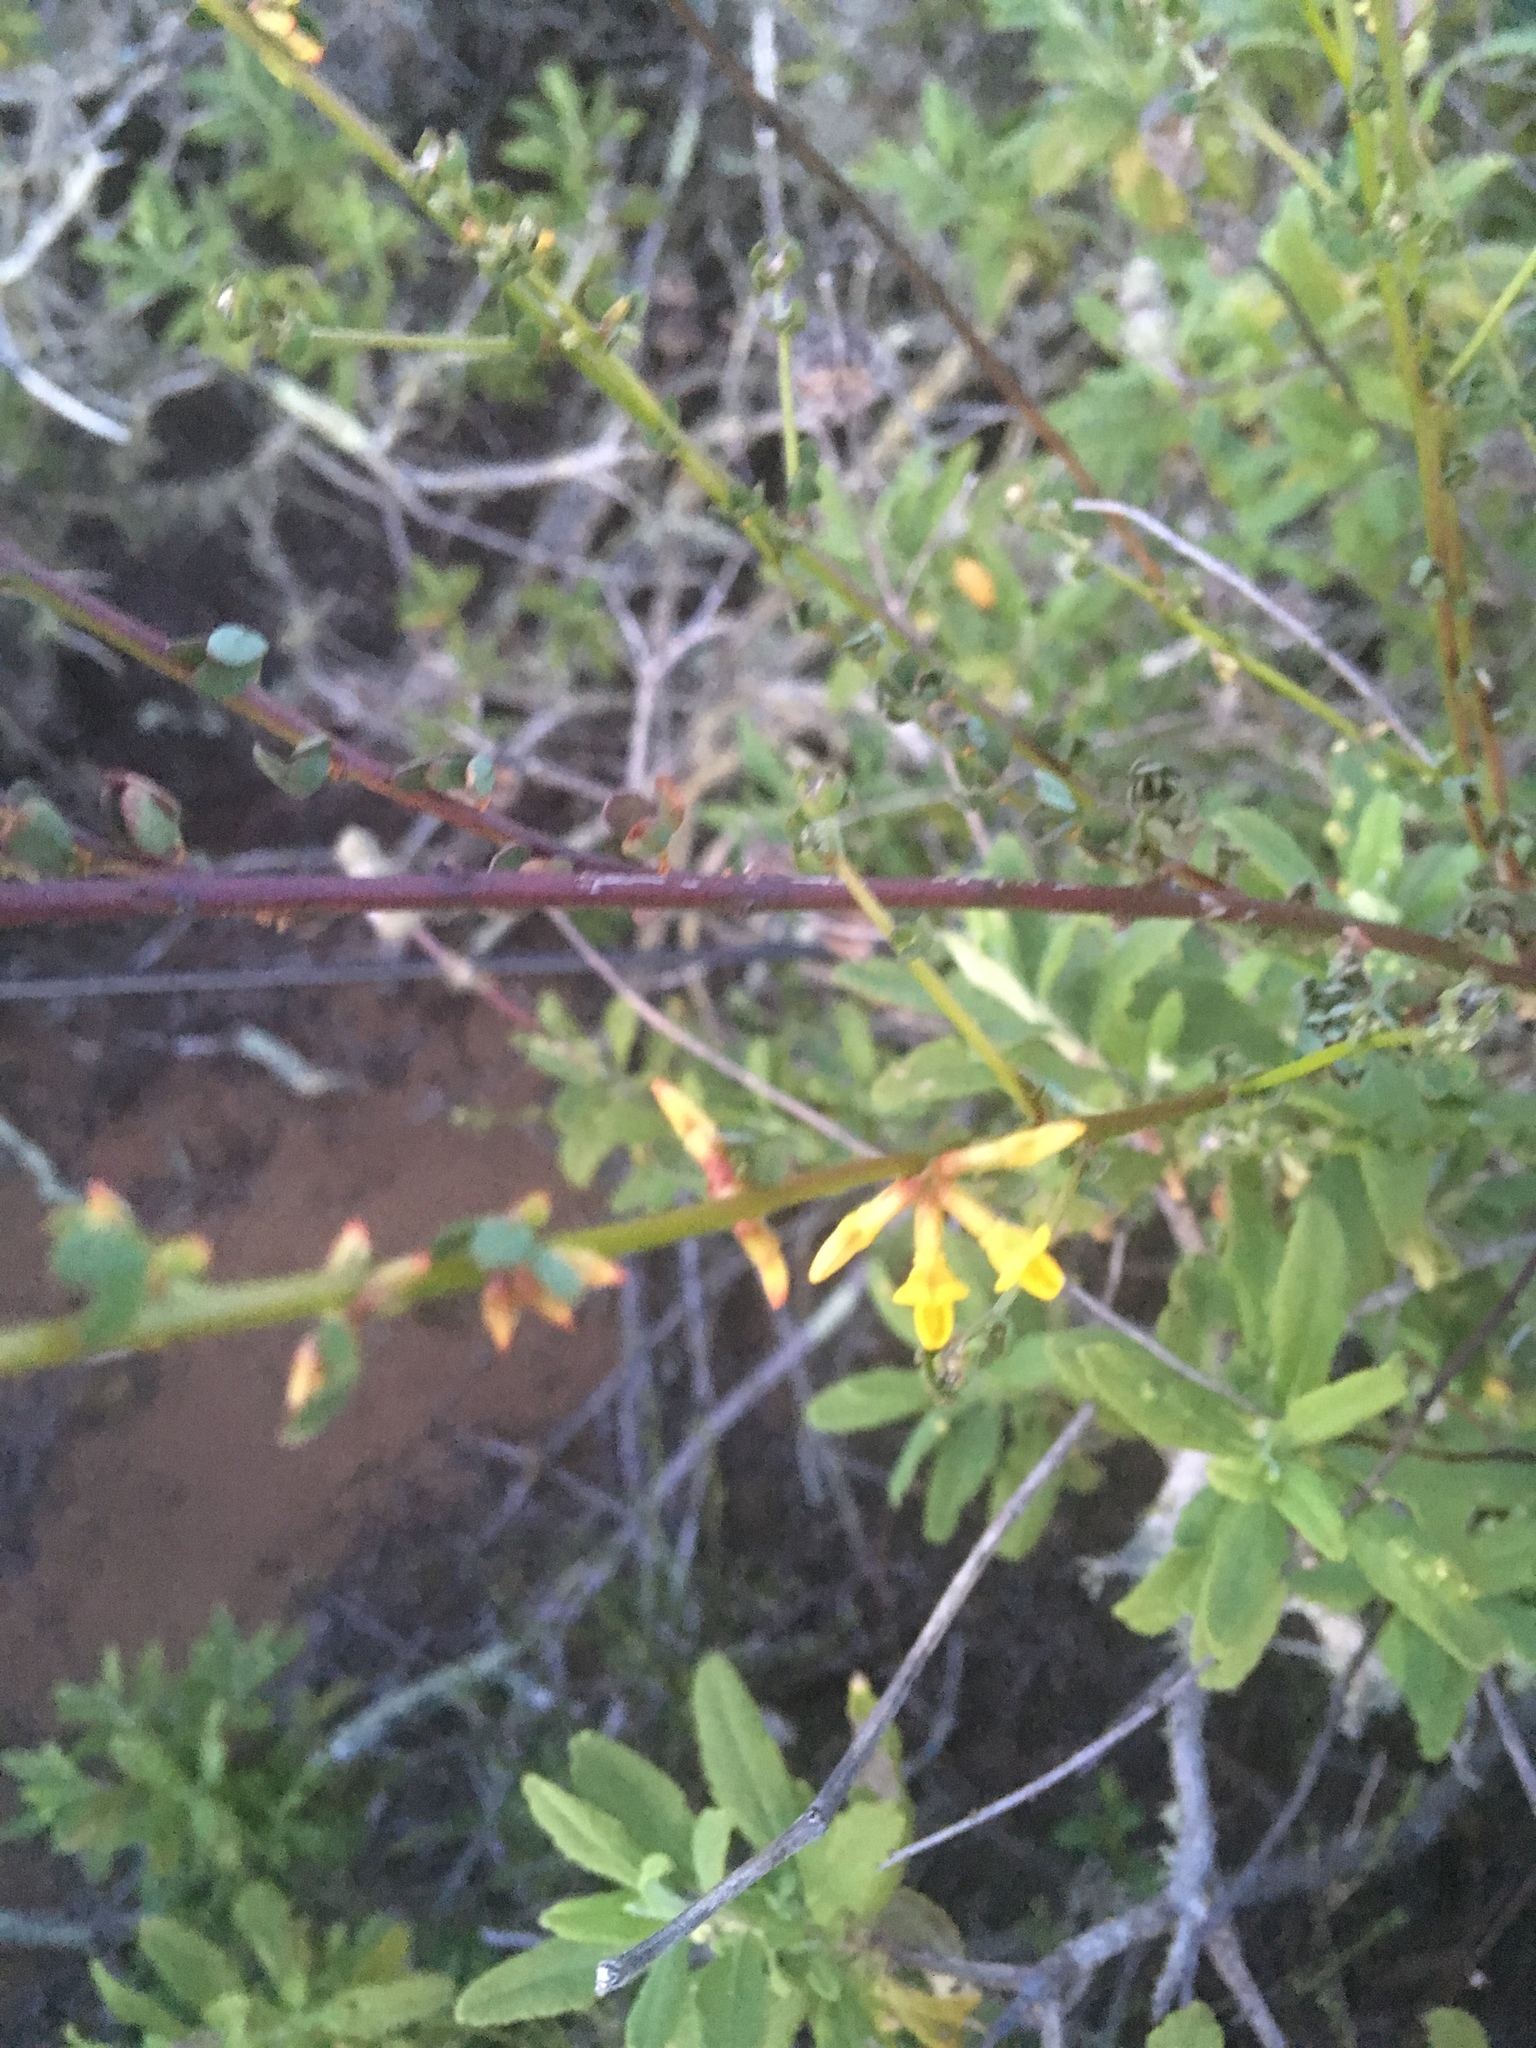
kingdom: Plantae
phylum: Tracheophyta
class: Magnoliopsida
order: Fabales
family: Fabaceae
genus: Acmispon
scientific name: Acmispon glaber
